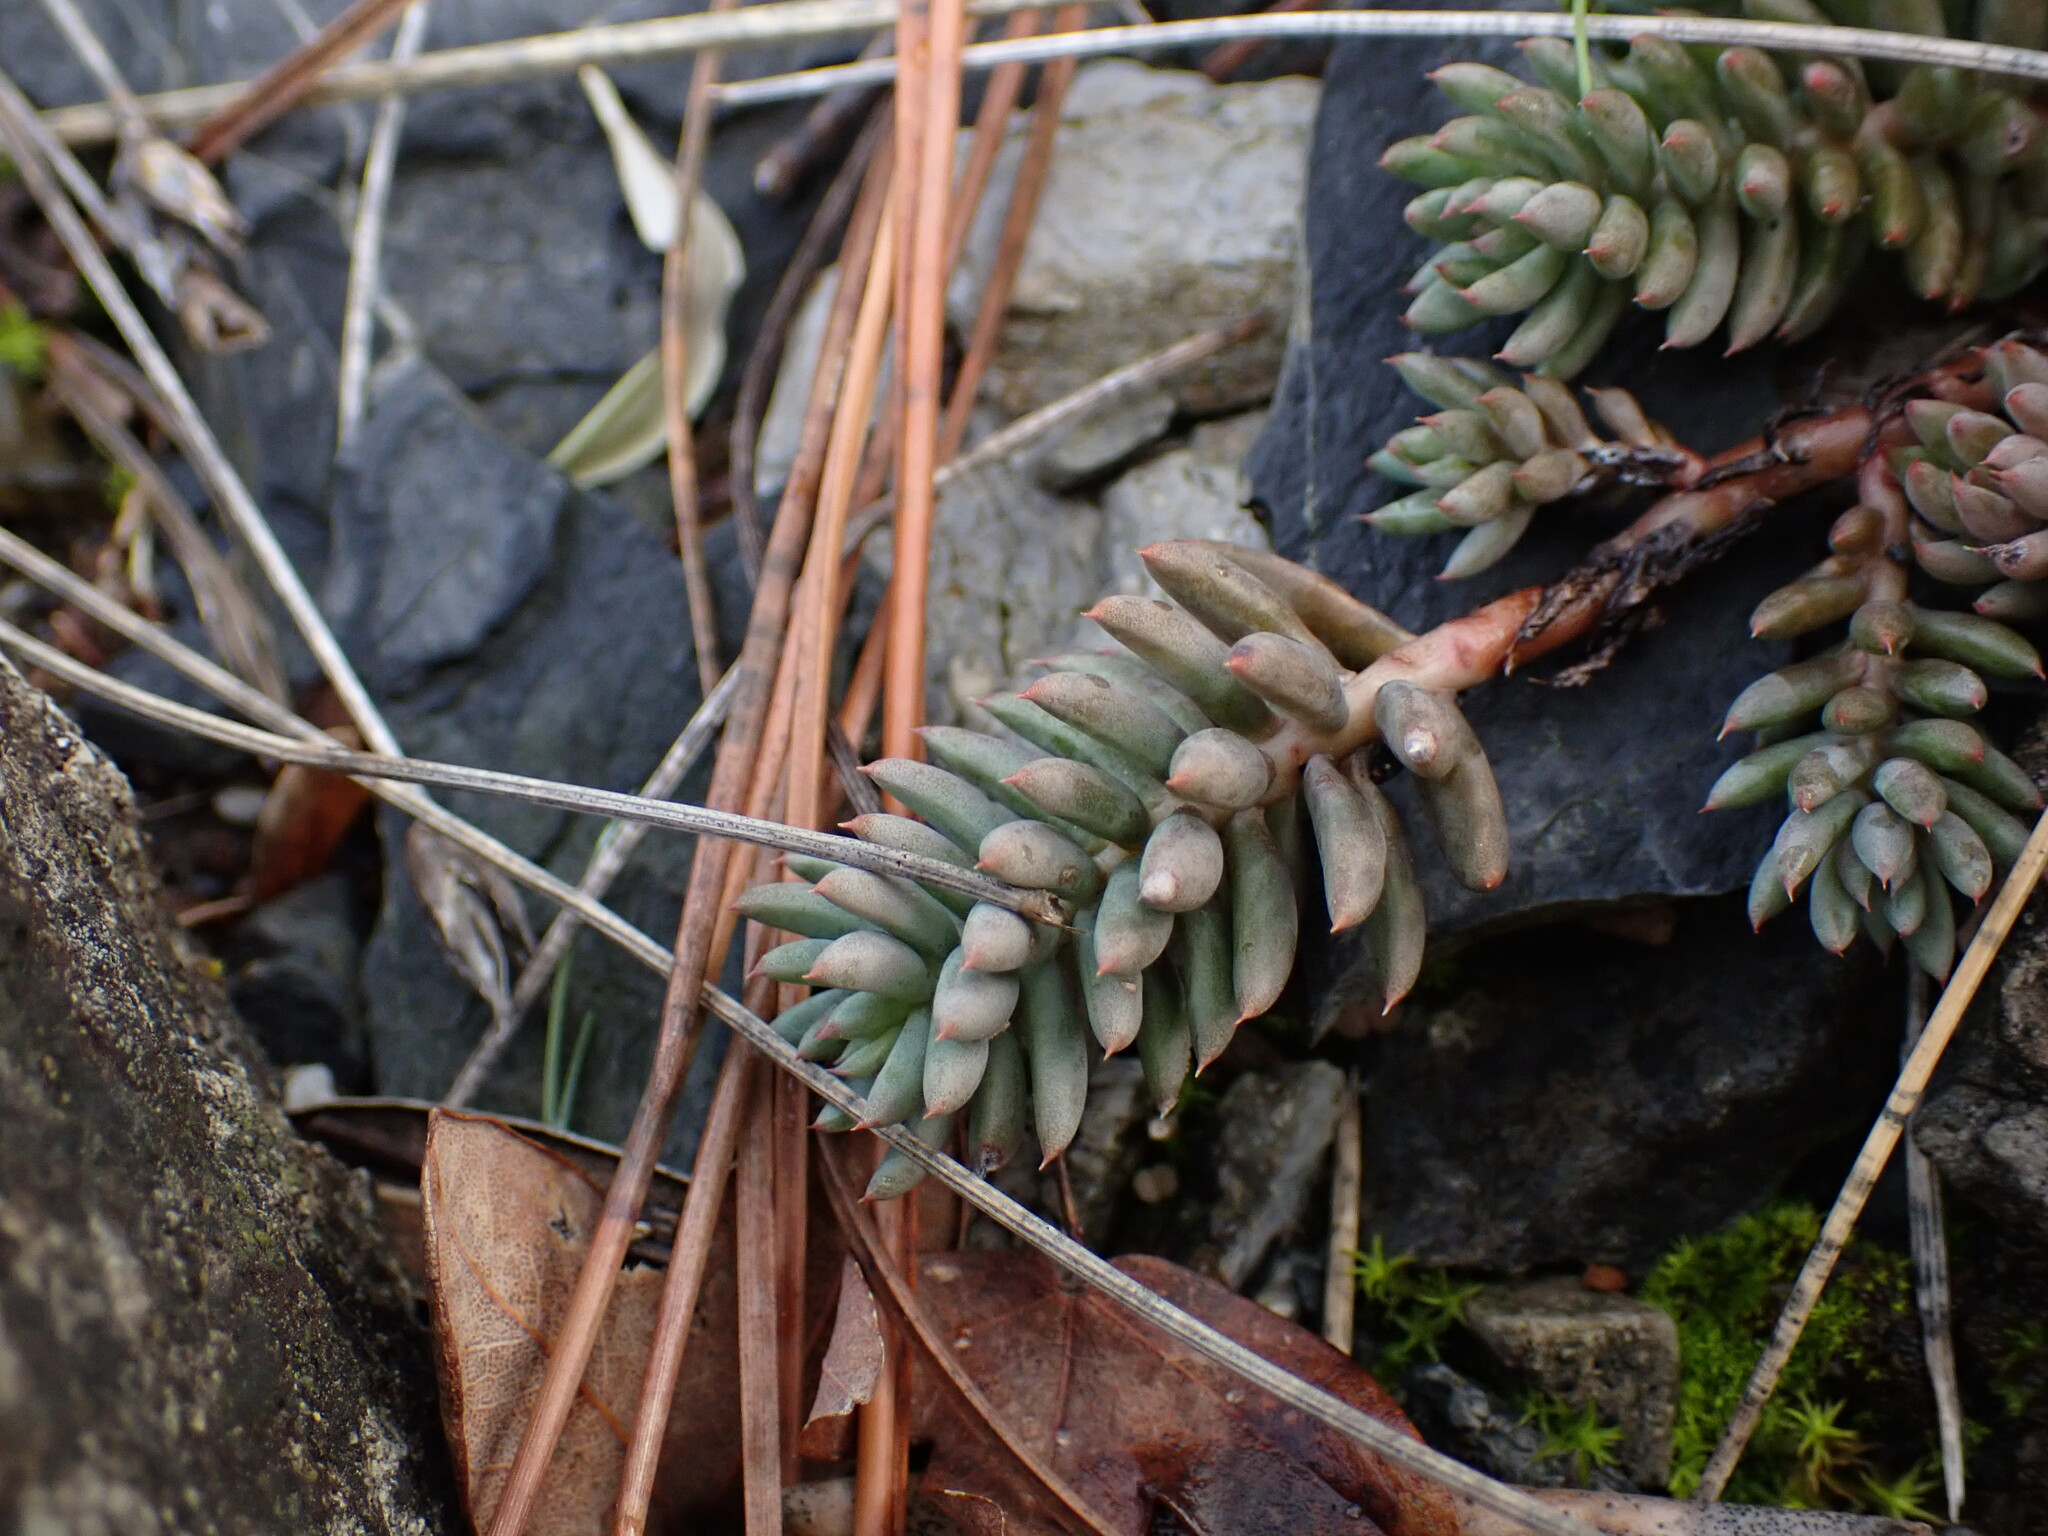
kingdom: Plantae
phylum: Tracheophyta
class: Magnoliopsida
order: Saxifragales
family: Crassulaceae
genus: Petrosedum
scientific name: Petrosedum sediforme
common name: Pale stonecrop
